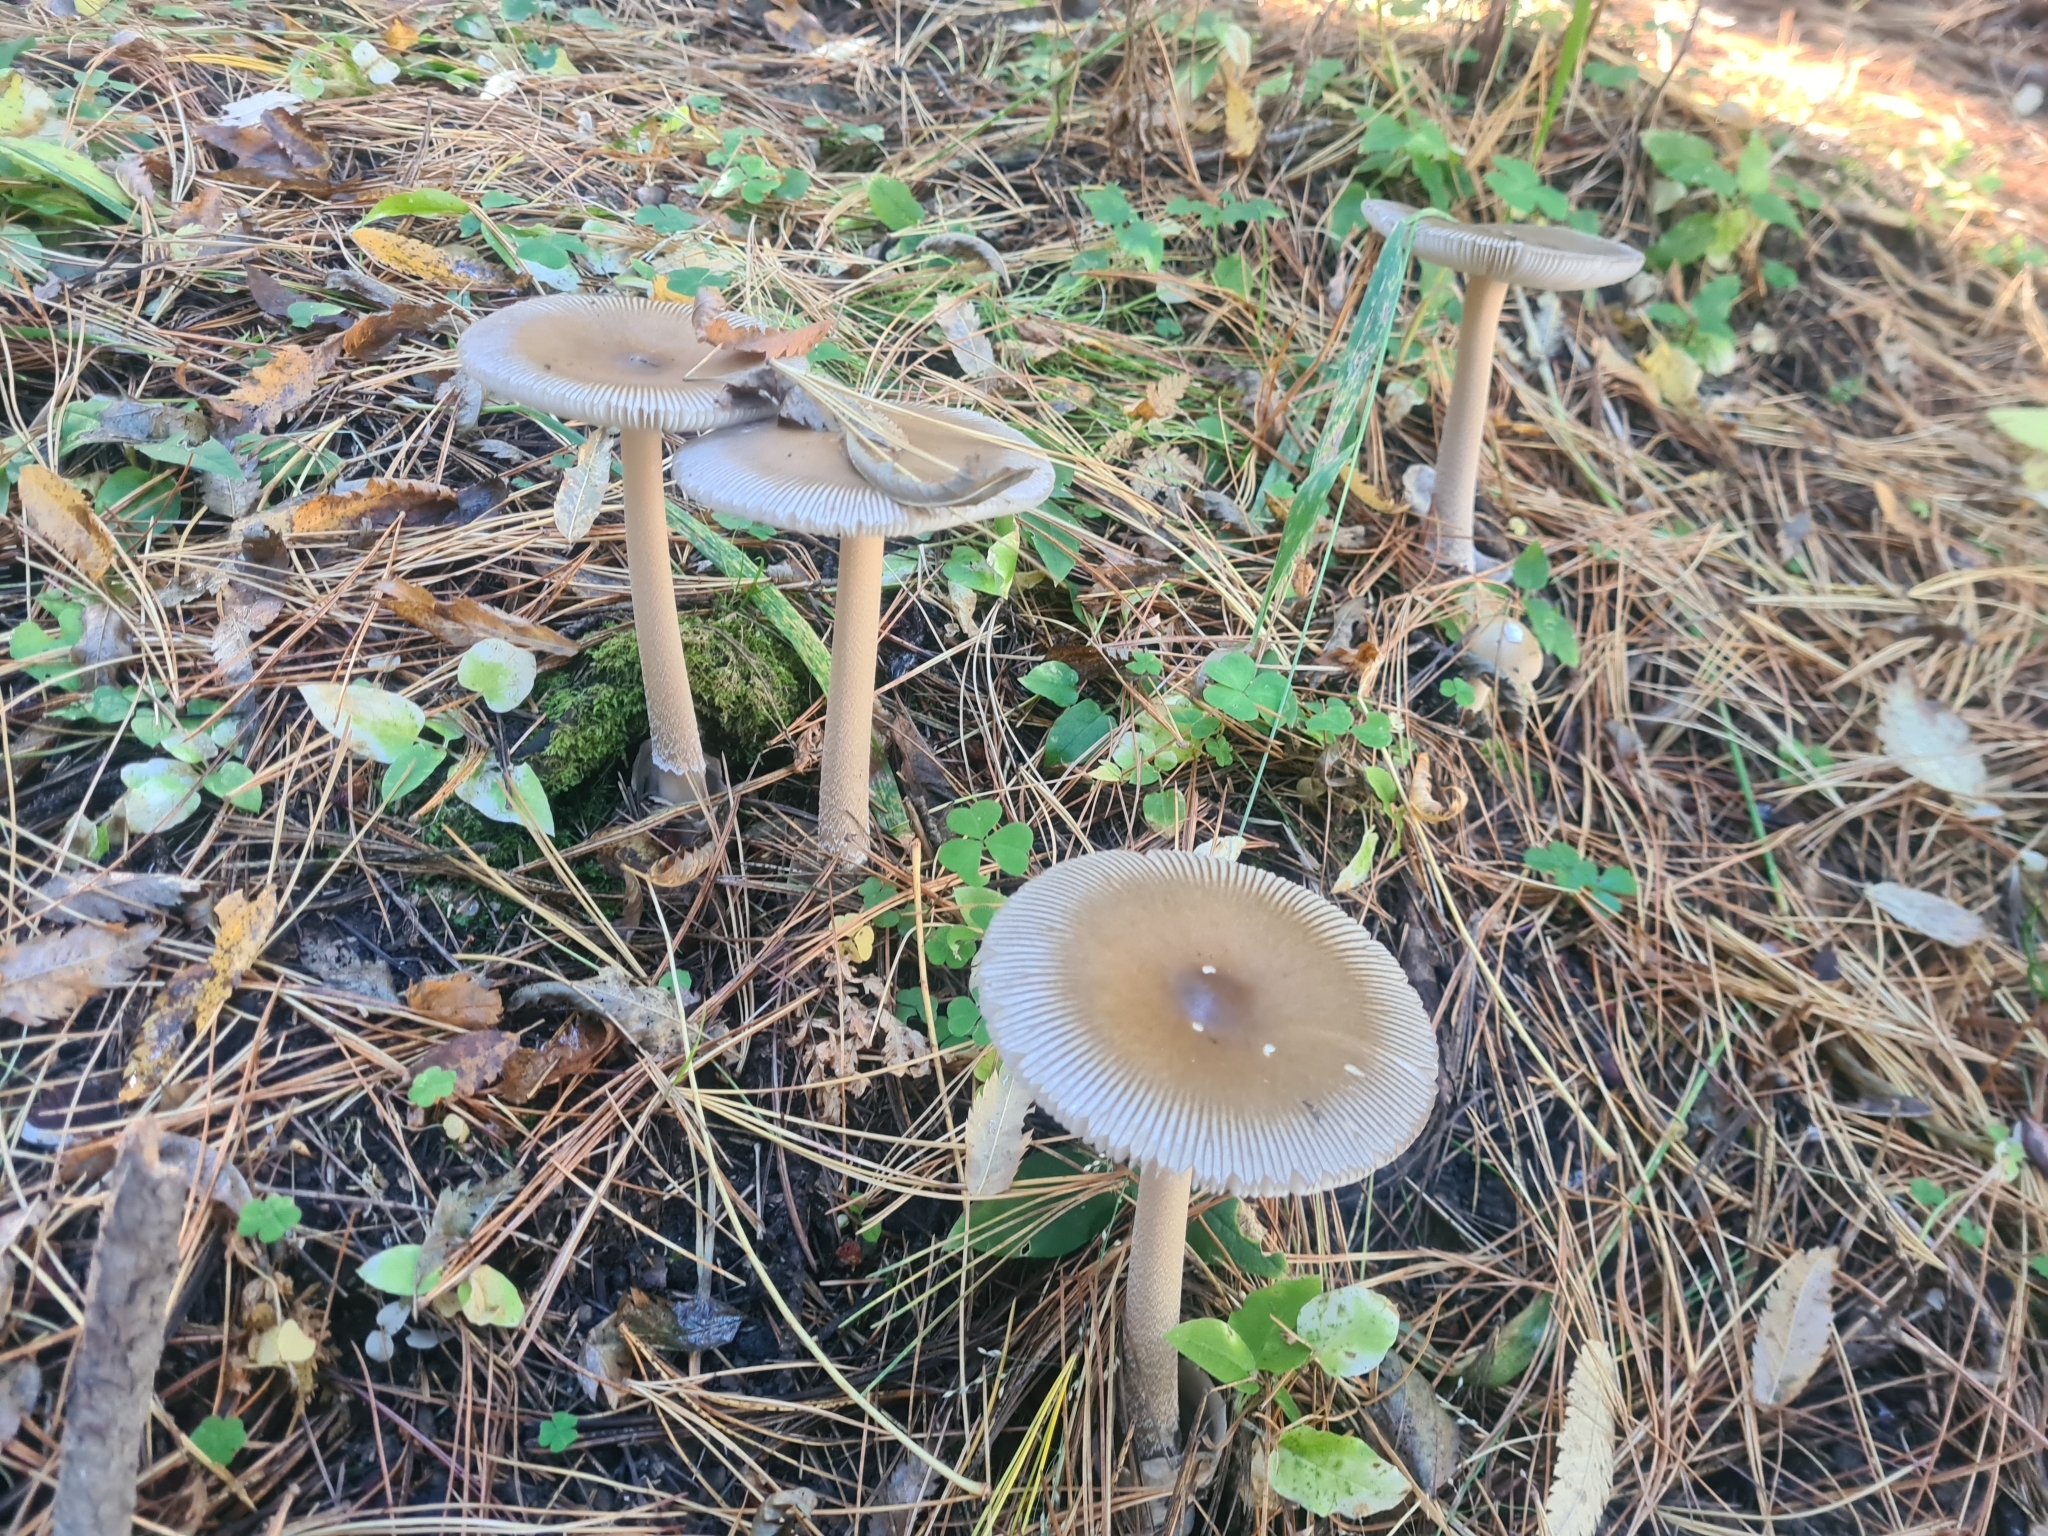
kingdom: Fungi
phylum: Basidiomycota
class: Agaricomycetes
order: Agaricales
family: Amanitaceae
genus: Amanita
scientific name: Amanita fulva
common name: Tawny grisette
